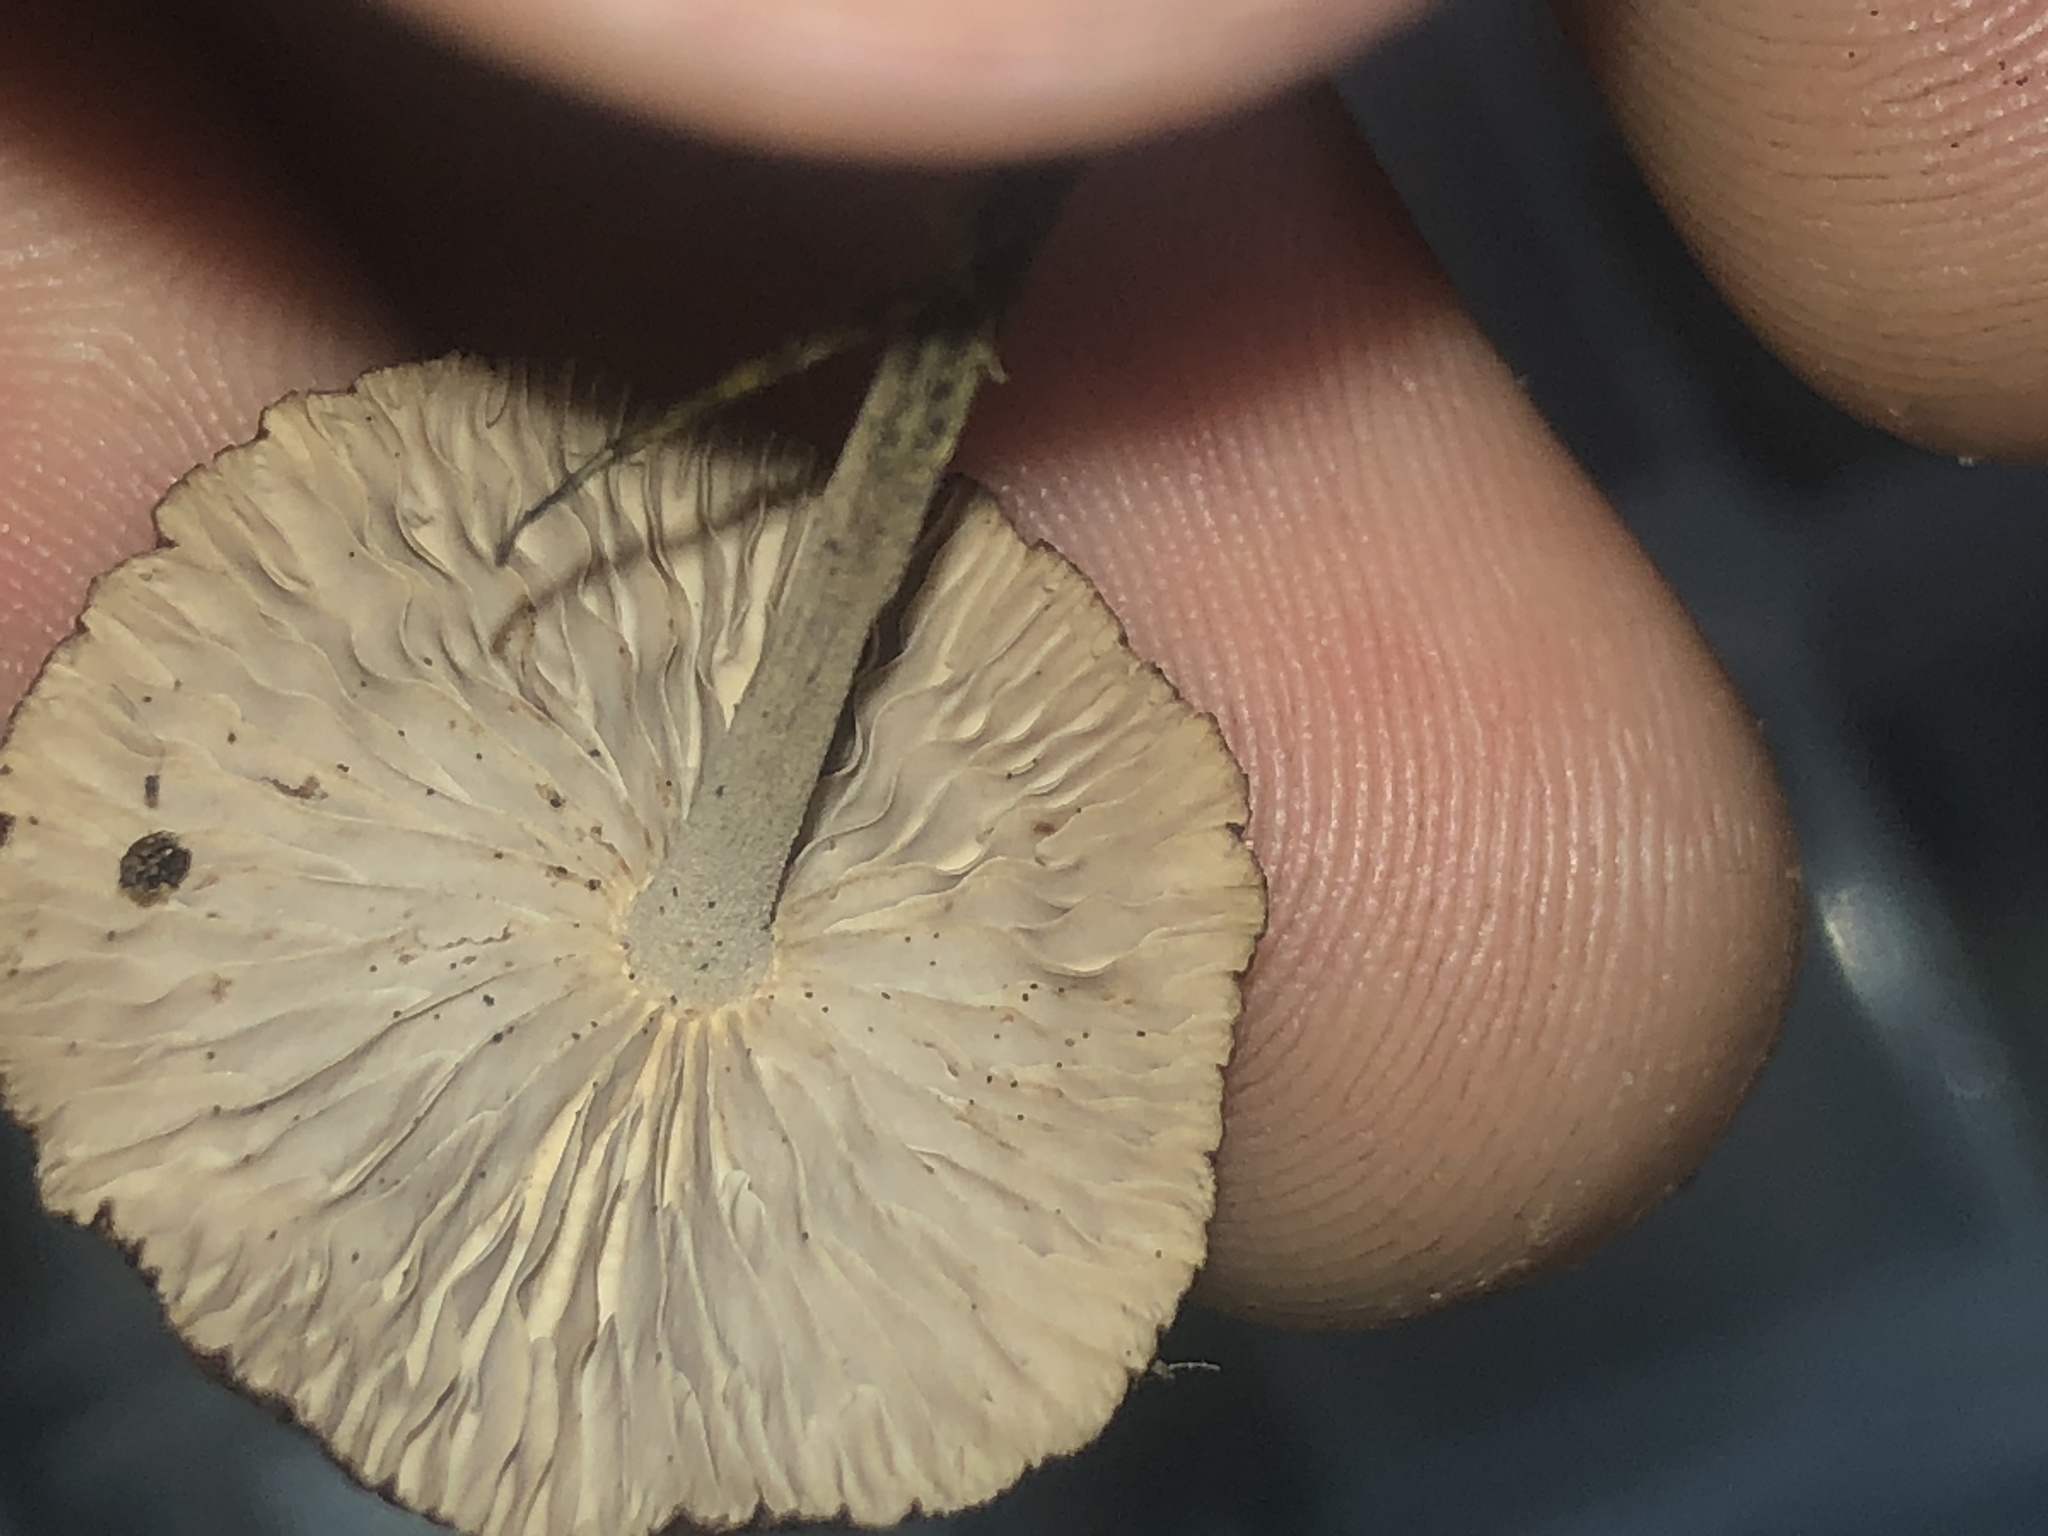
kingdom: Fungi
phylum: Basidiomycota
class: Agaricomycetes
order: Agaricales
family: Omphalotaceae
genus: Collybiopsis
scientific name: Collybiopsis villosipes
